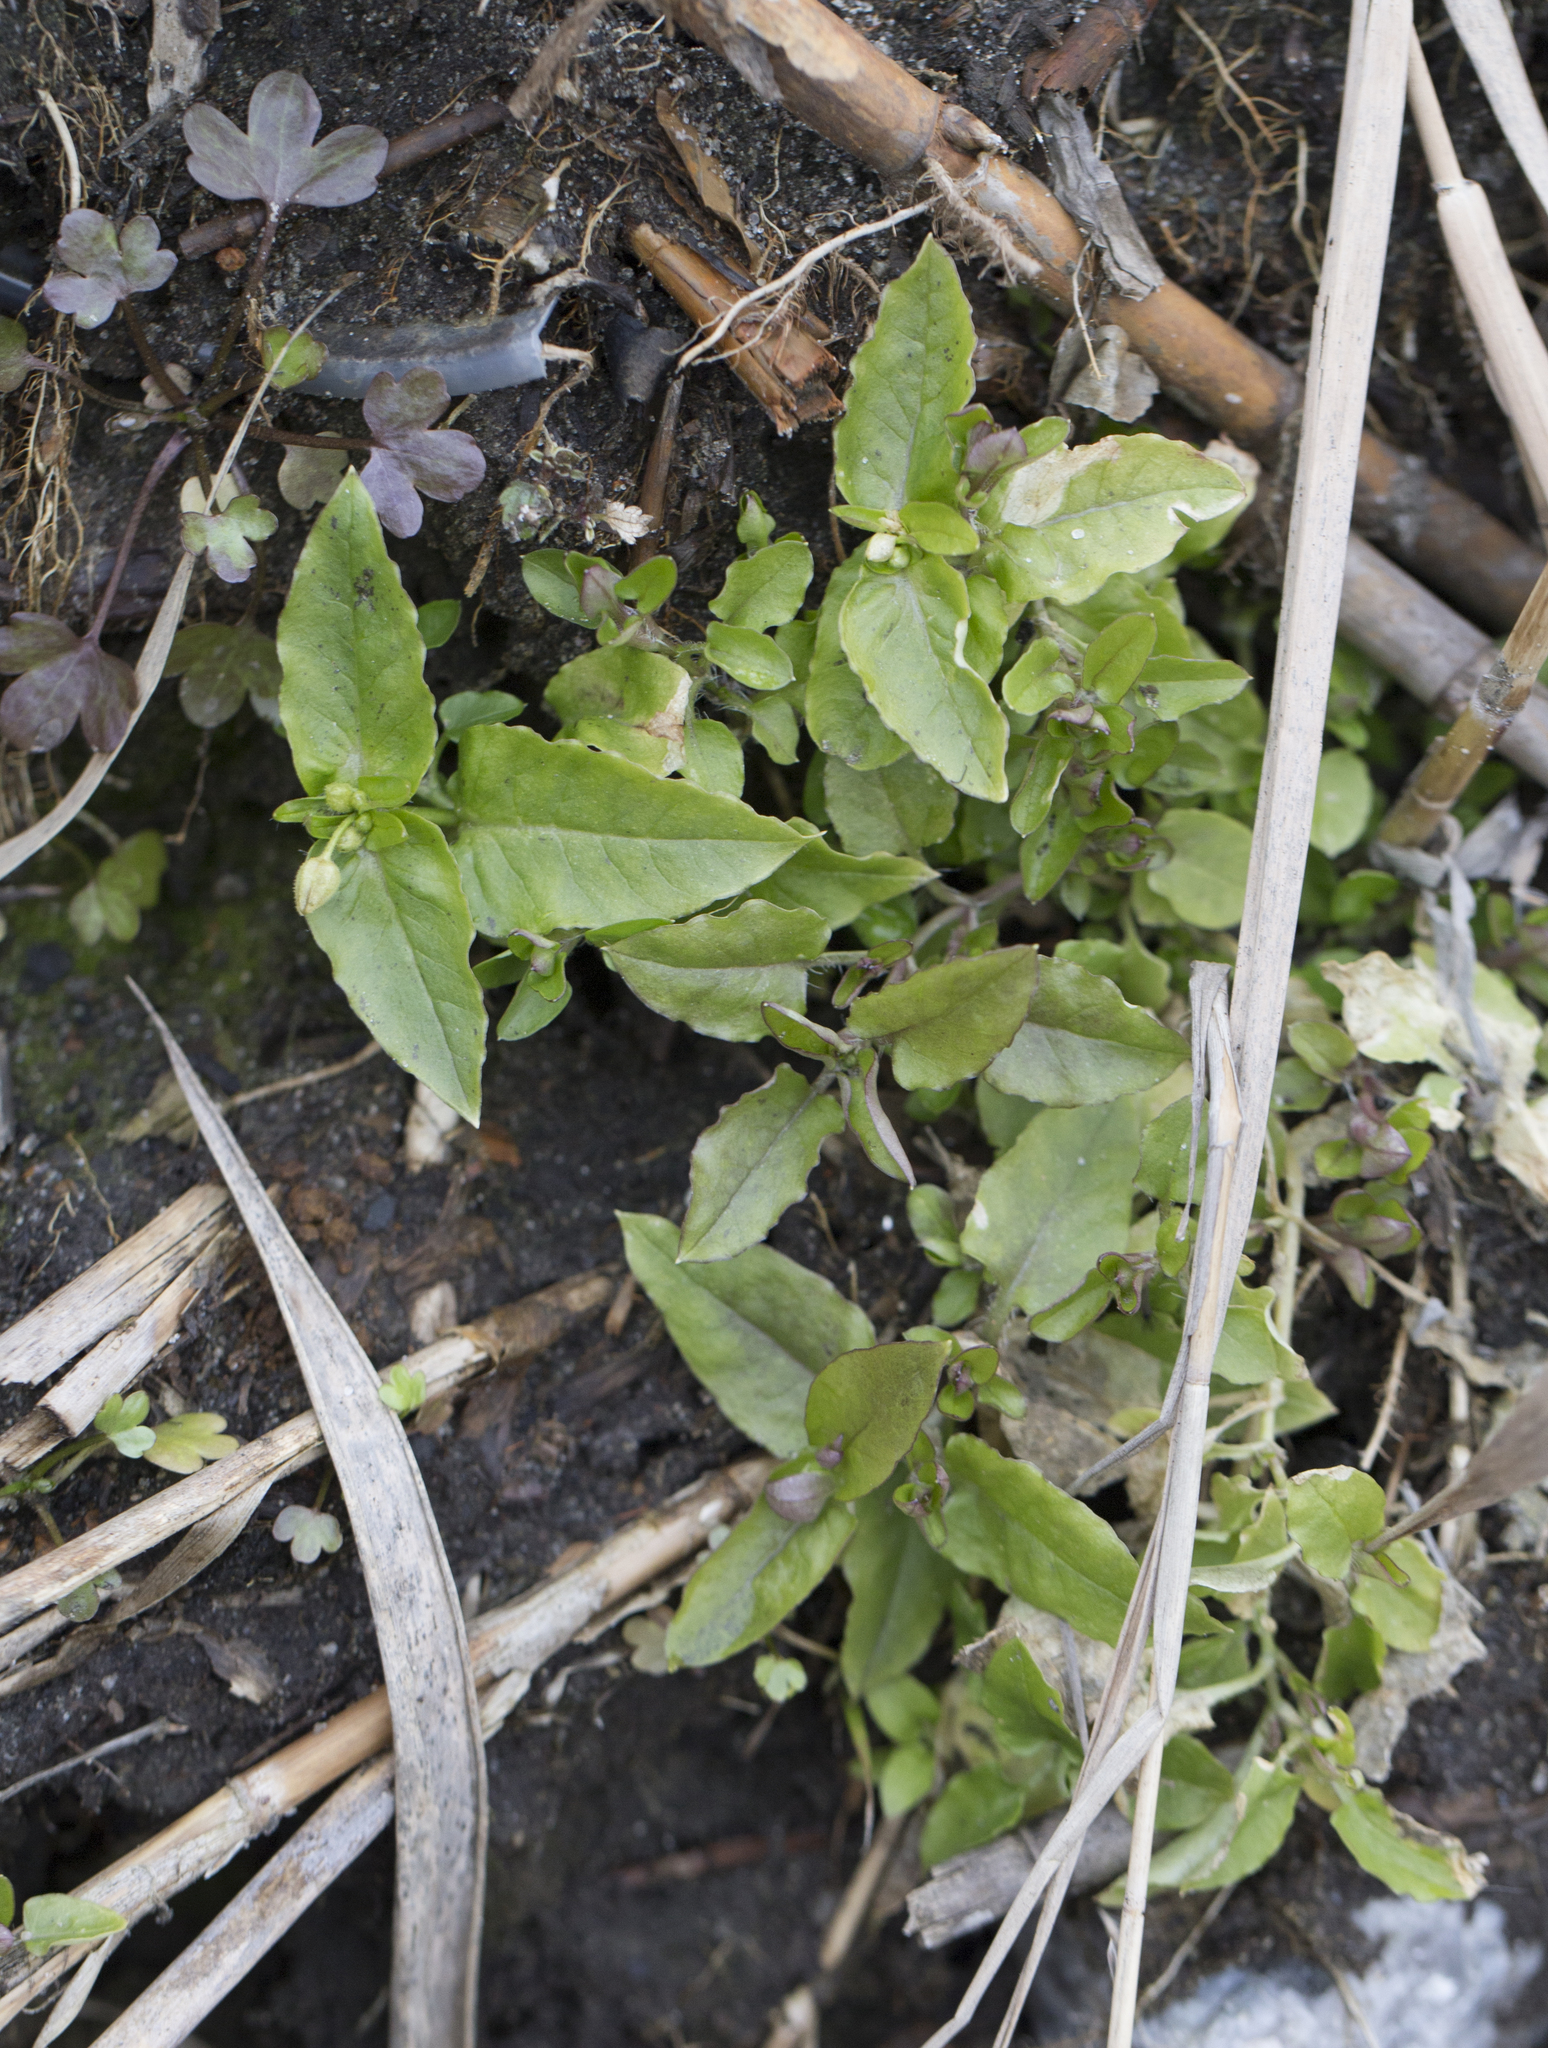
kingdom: Plantae
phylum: Tracheophyta
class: Magnoliopsida
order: Caryophyllales
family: Caryophyllaceae
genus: Stellaria
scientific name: Stellaria aquatica
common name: Water chickweed
